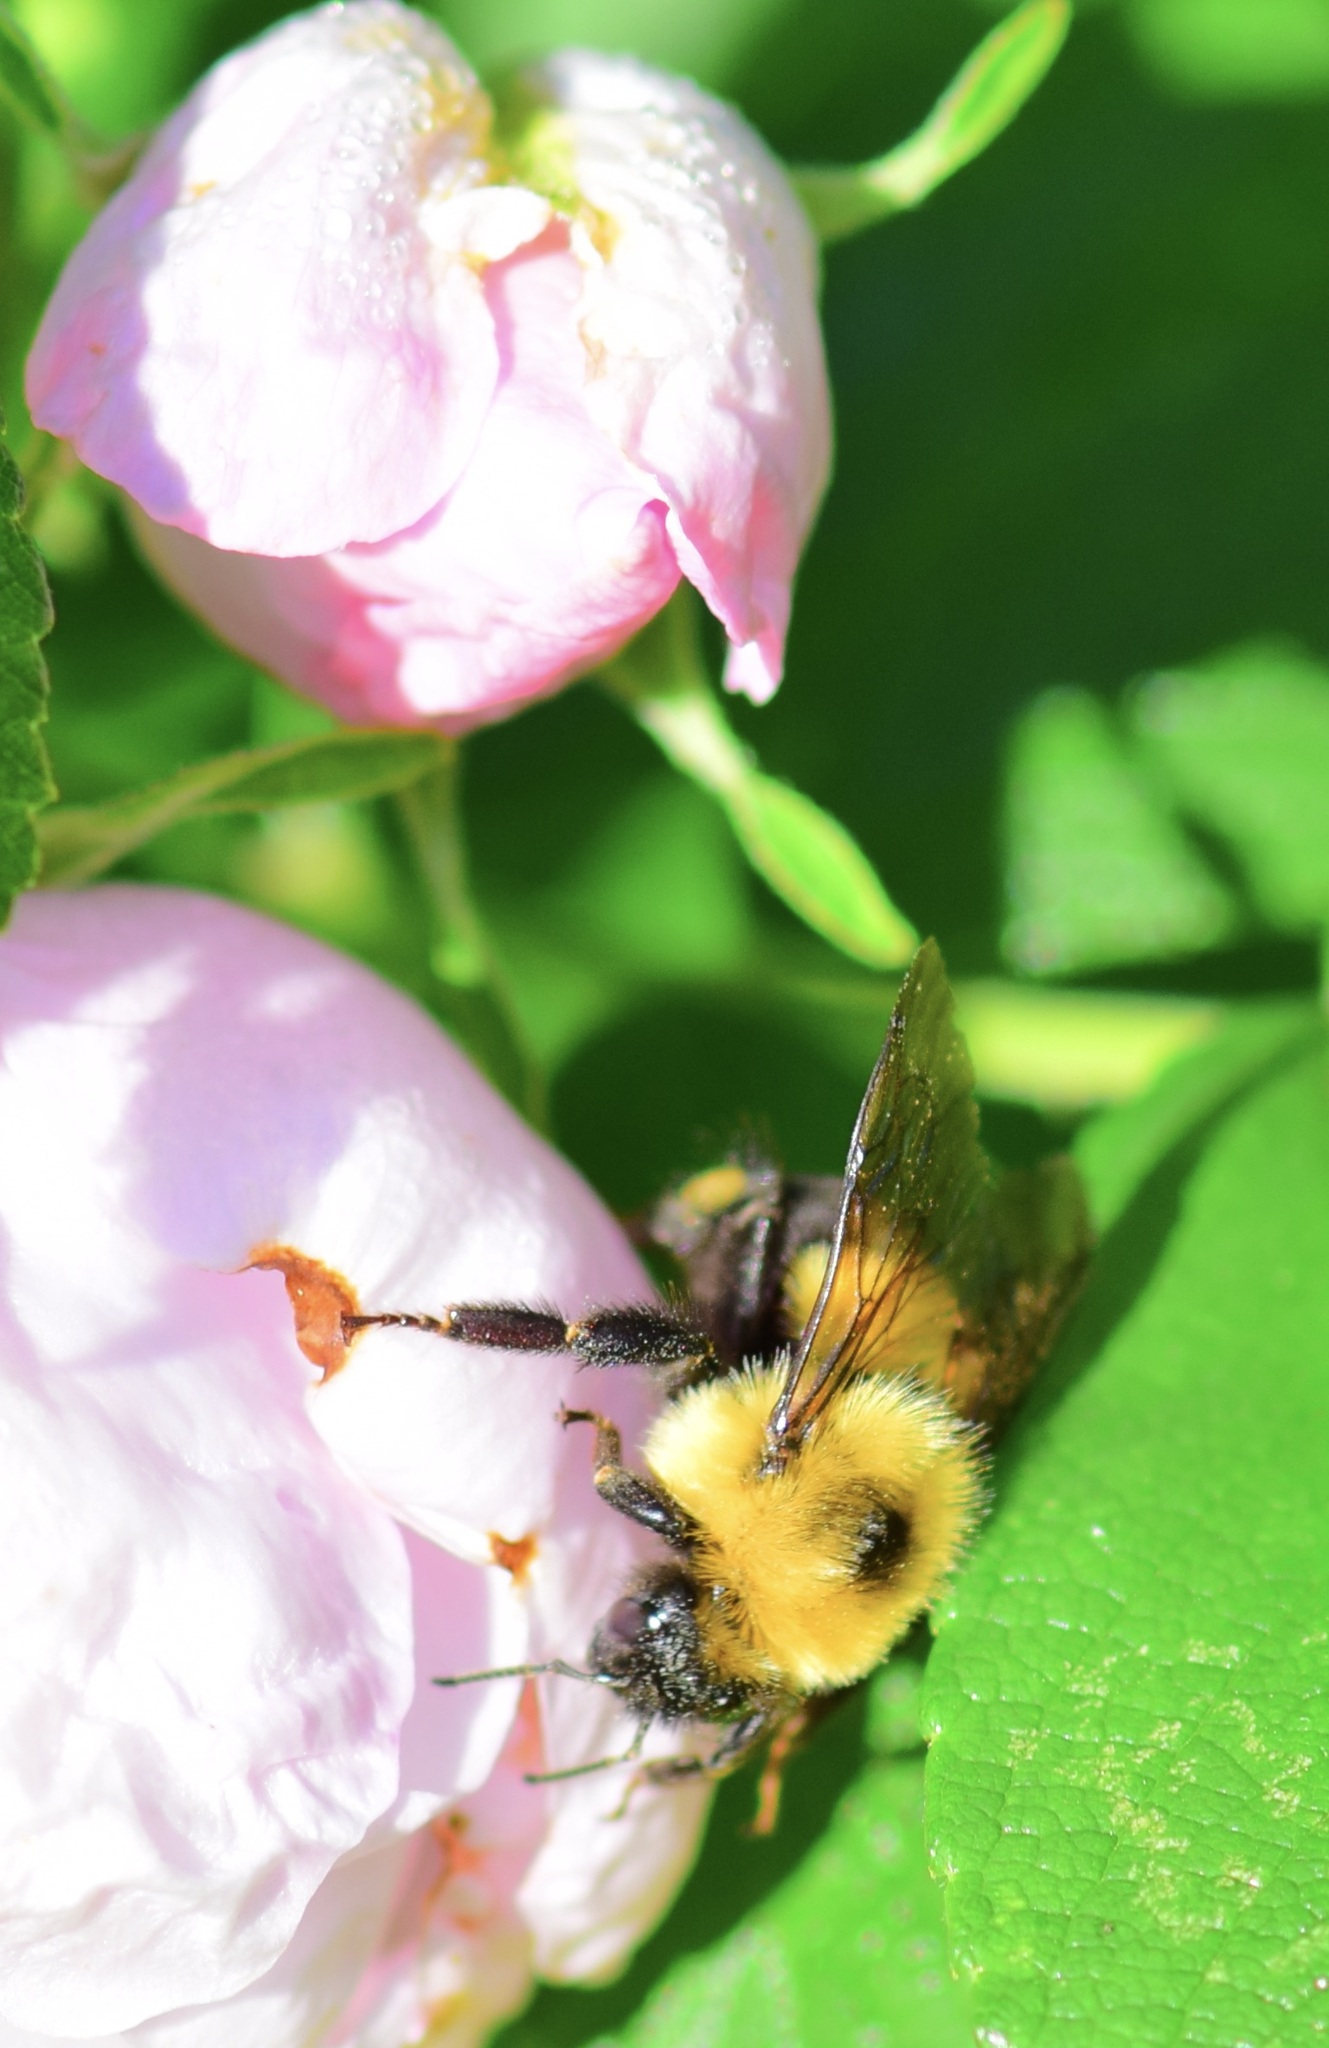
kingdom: Animalia
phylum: Arthropoda
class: Insecta
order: Hymenoptera
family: Apidae
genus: Bombus
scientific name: Bombus bimaculatus
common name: Two-spotted bumble bee
